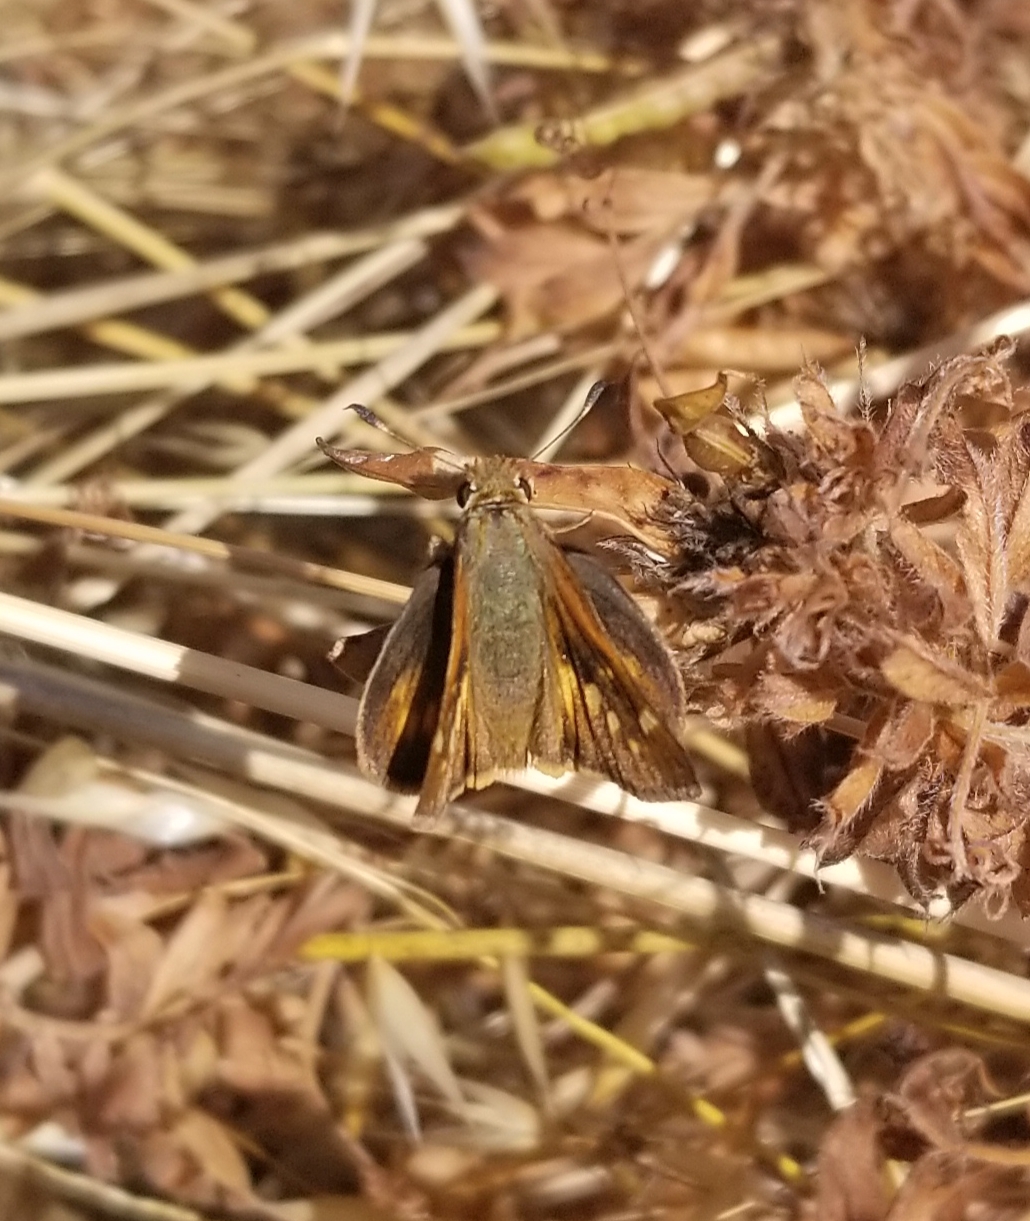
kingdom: Animalia
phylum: Arthropoda
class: Insecta
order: Lepidoptera
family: Hesperiidae
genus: Lon
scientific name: Lon melane
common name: Umber skipper
